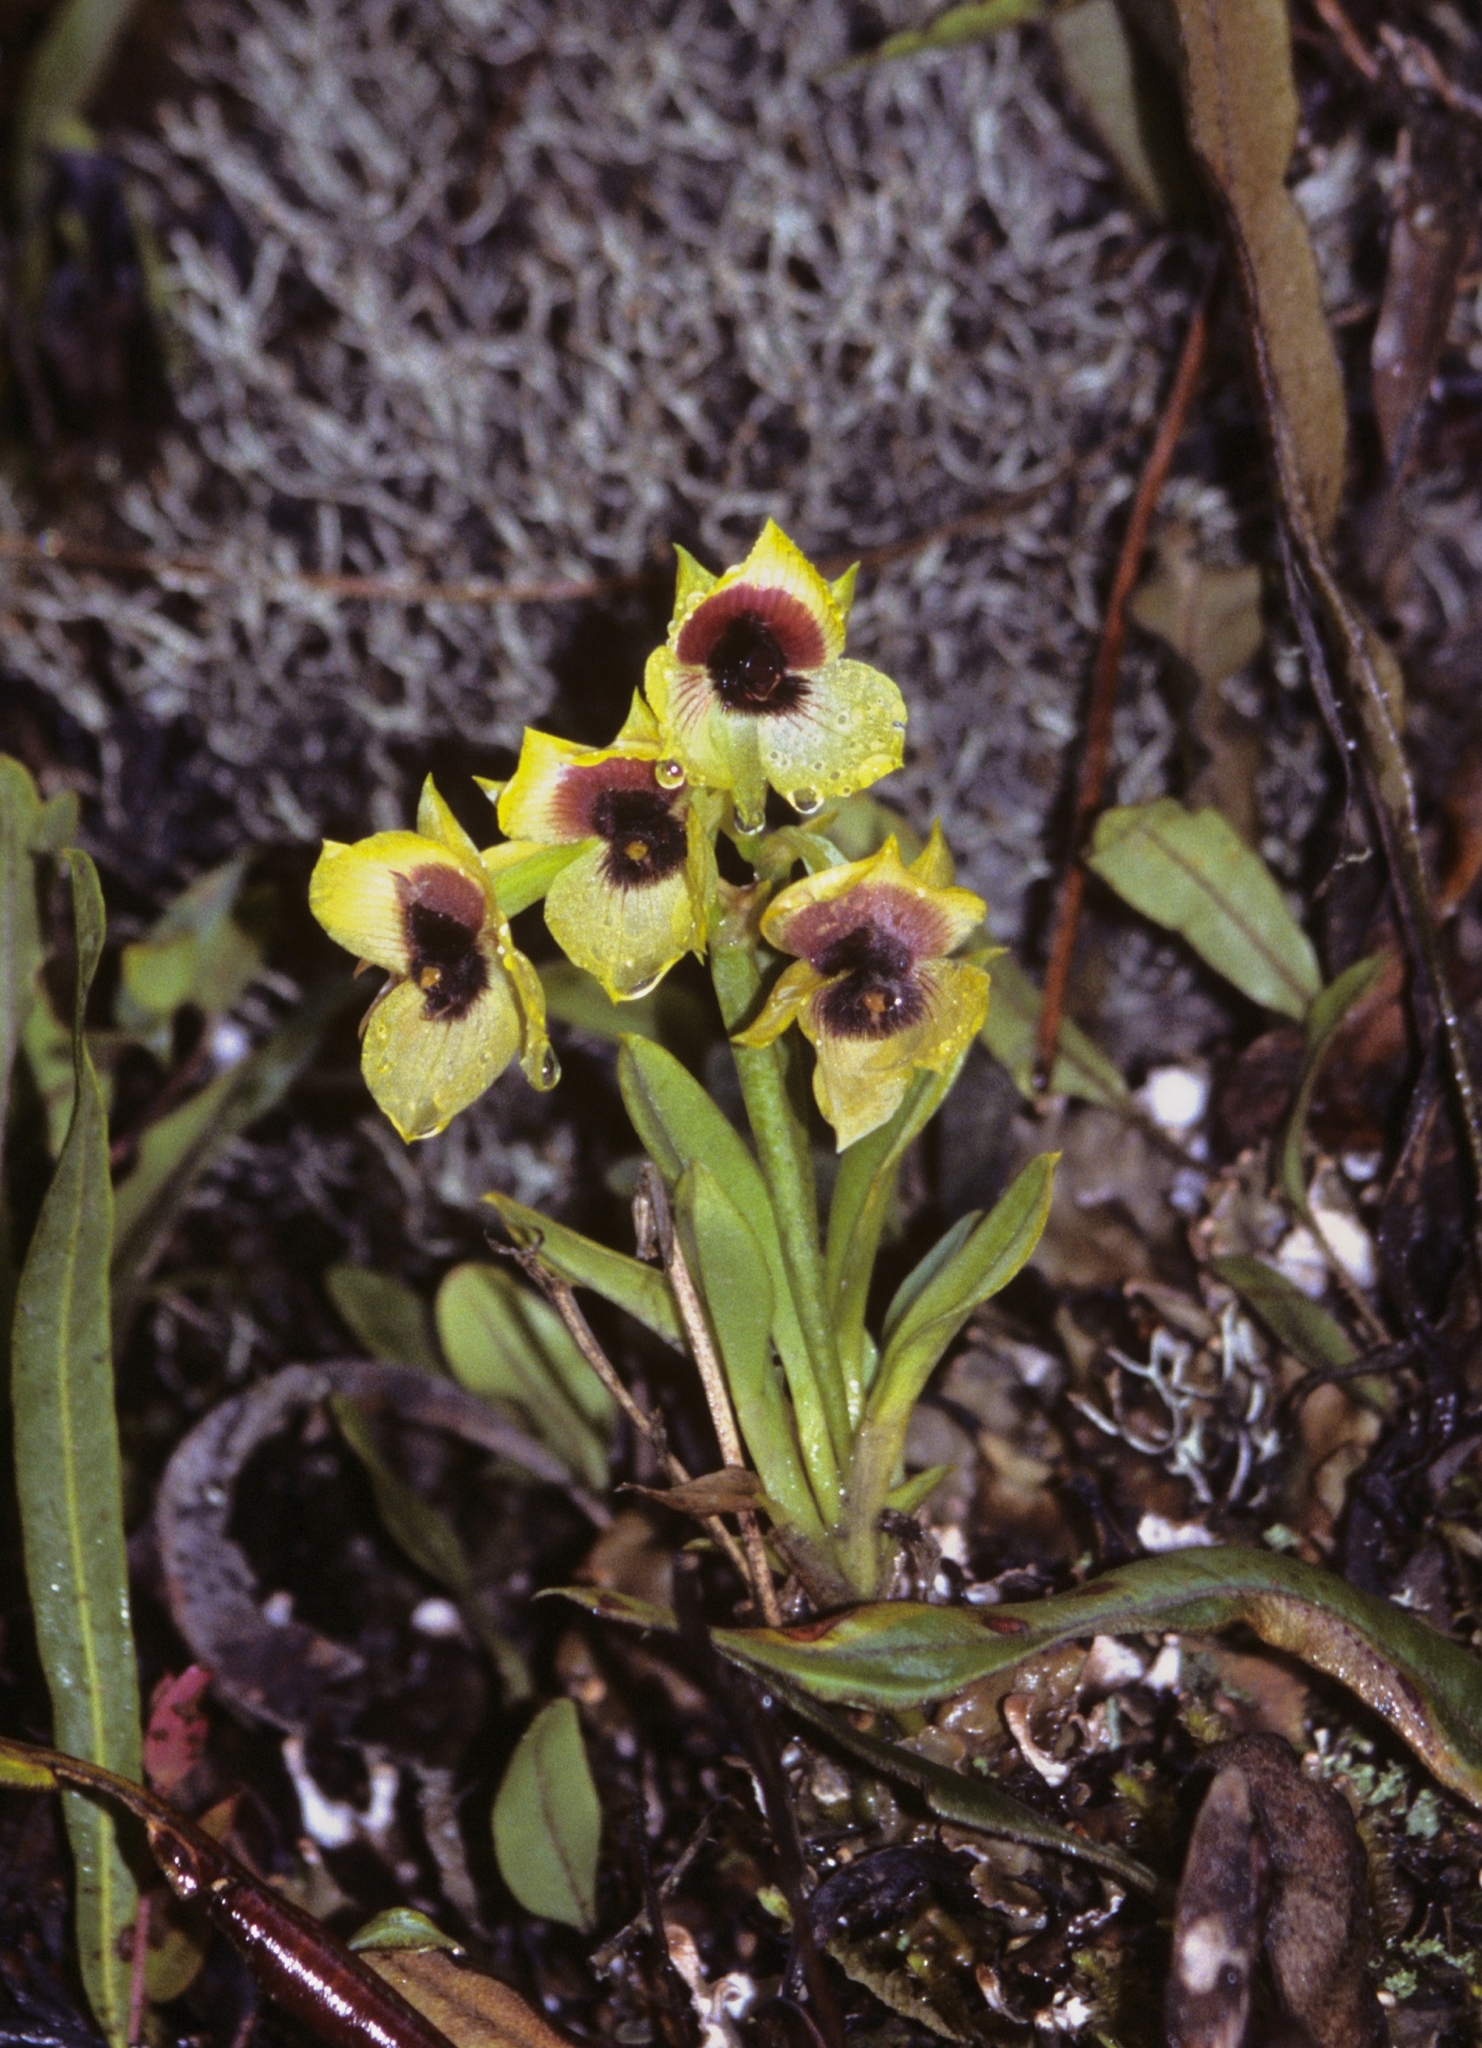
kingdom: Plantae
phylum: Tracheophyta
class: Liliopsida
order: Asparagales
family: Orchidaceae
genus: Telipogon
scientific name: Telipogon antisuyuensis
